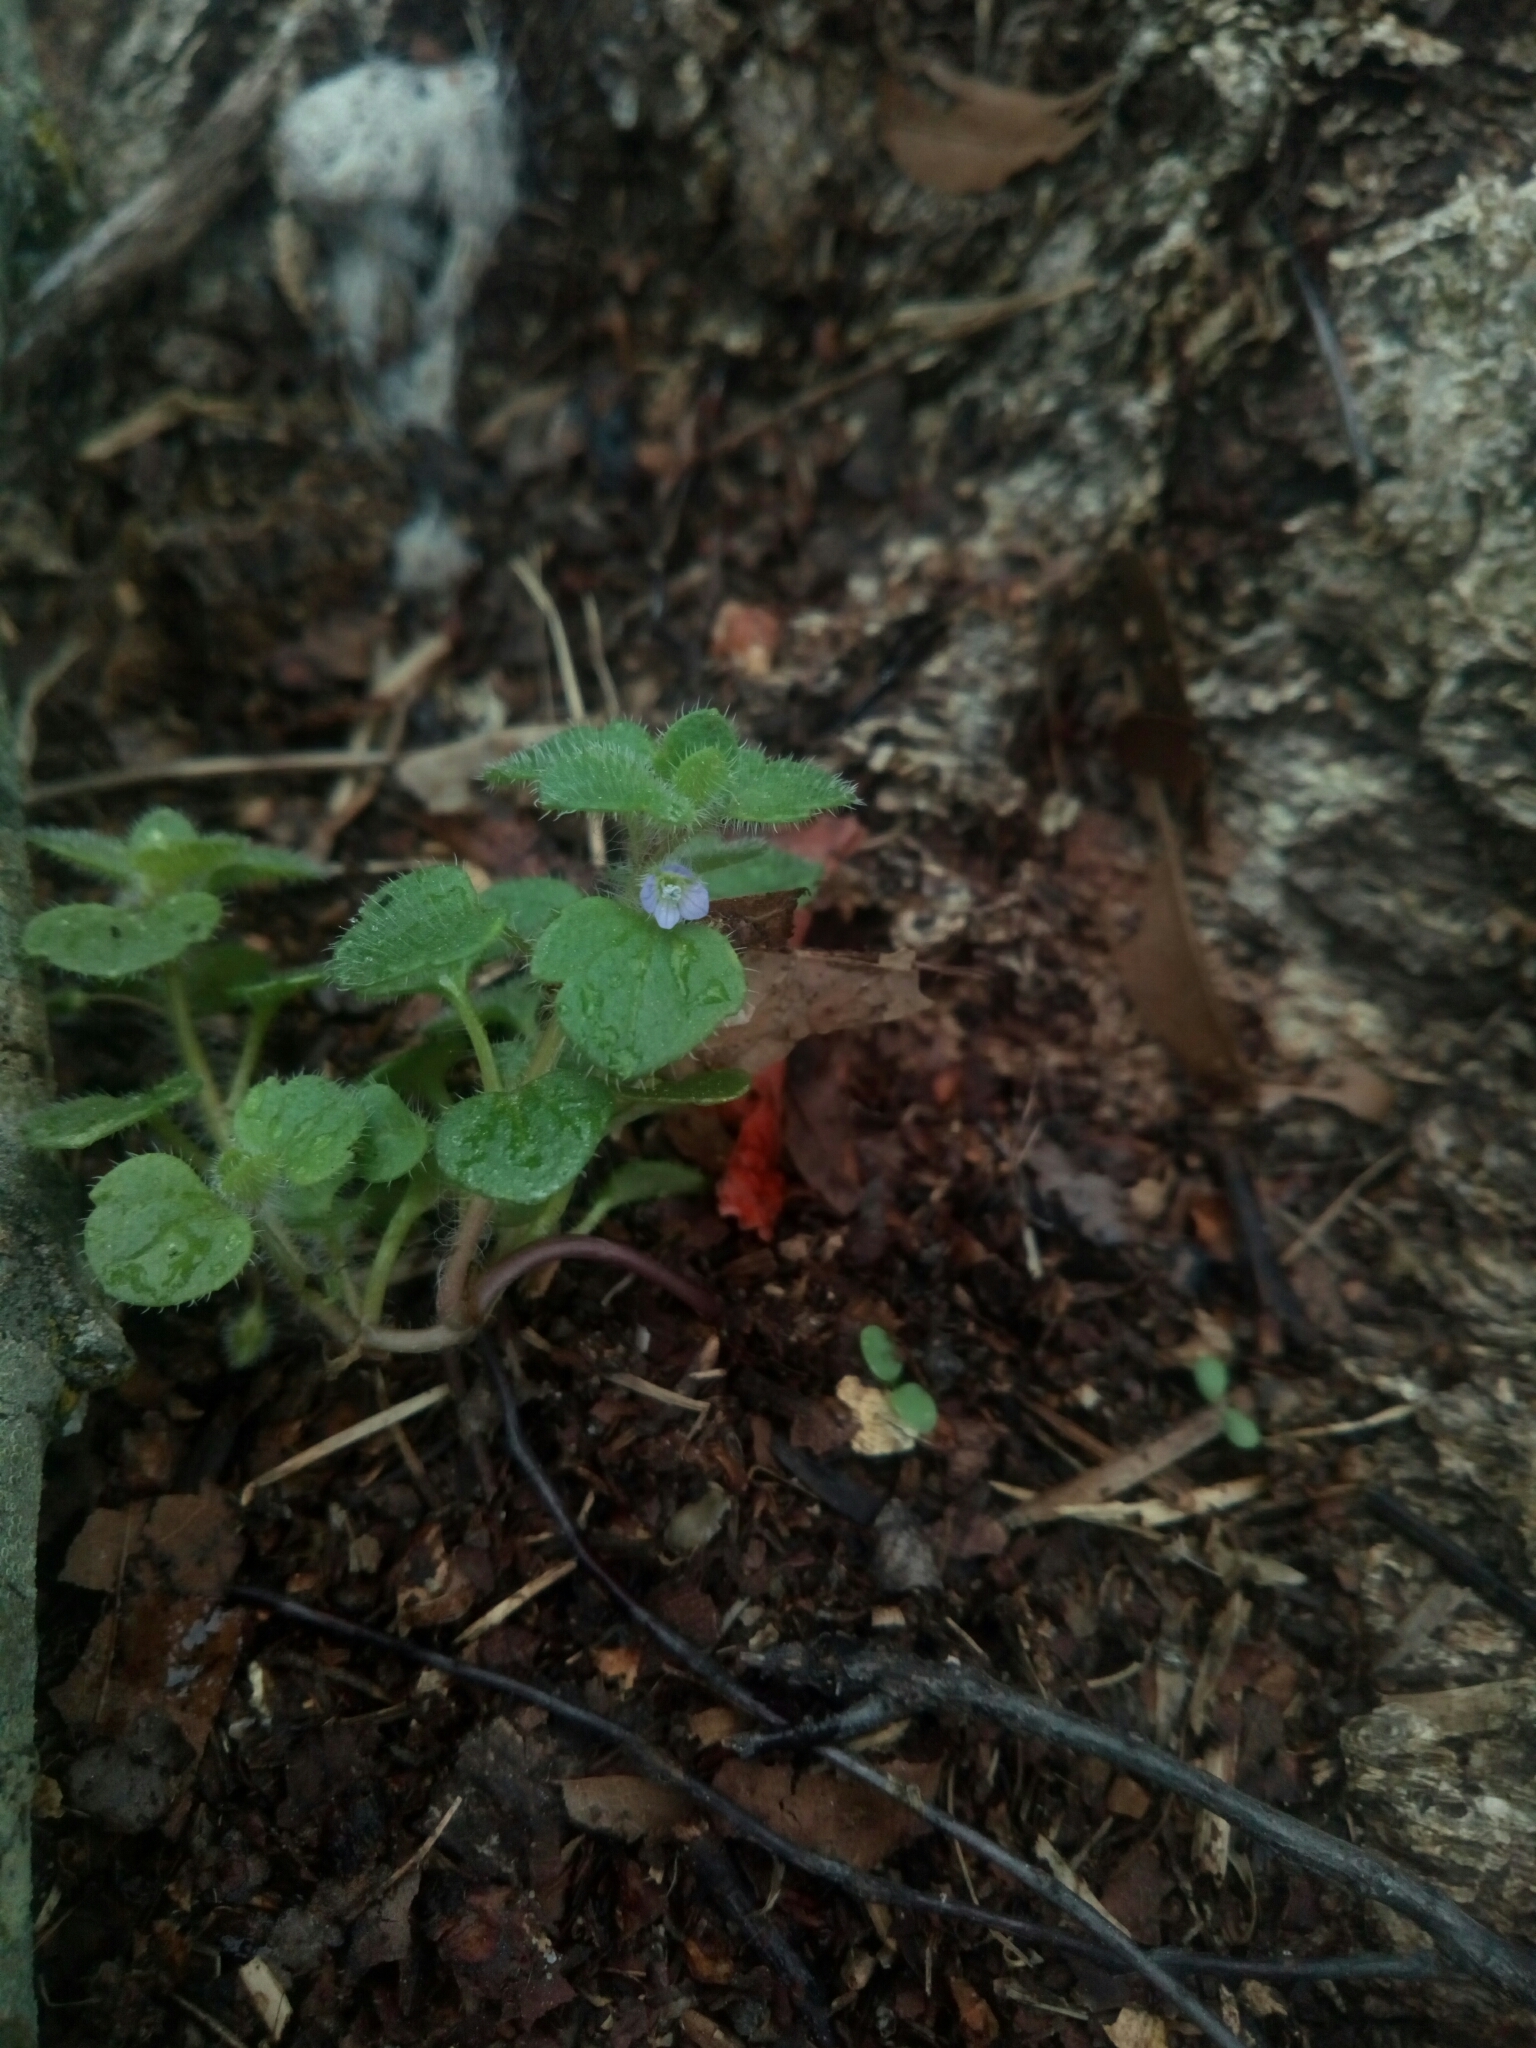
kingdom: Plantae
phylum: Tracheophyta
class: Magnoliopsida
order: Lamiales
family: Plantaginaceae
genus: Veronica
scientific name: Veronica hederifolia
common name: Ivy-leaved speedwell
